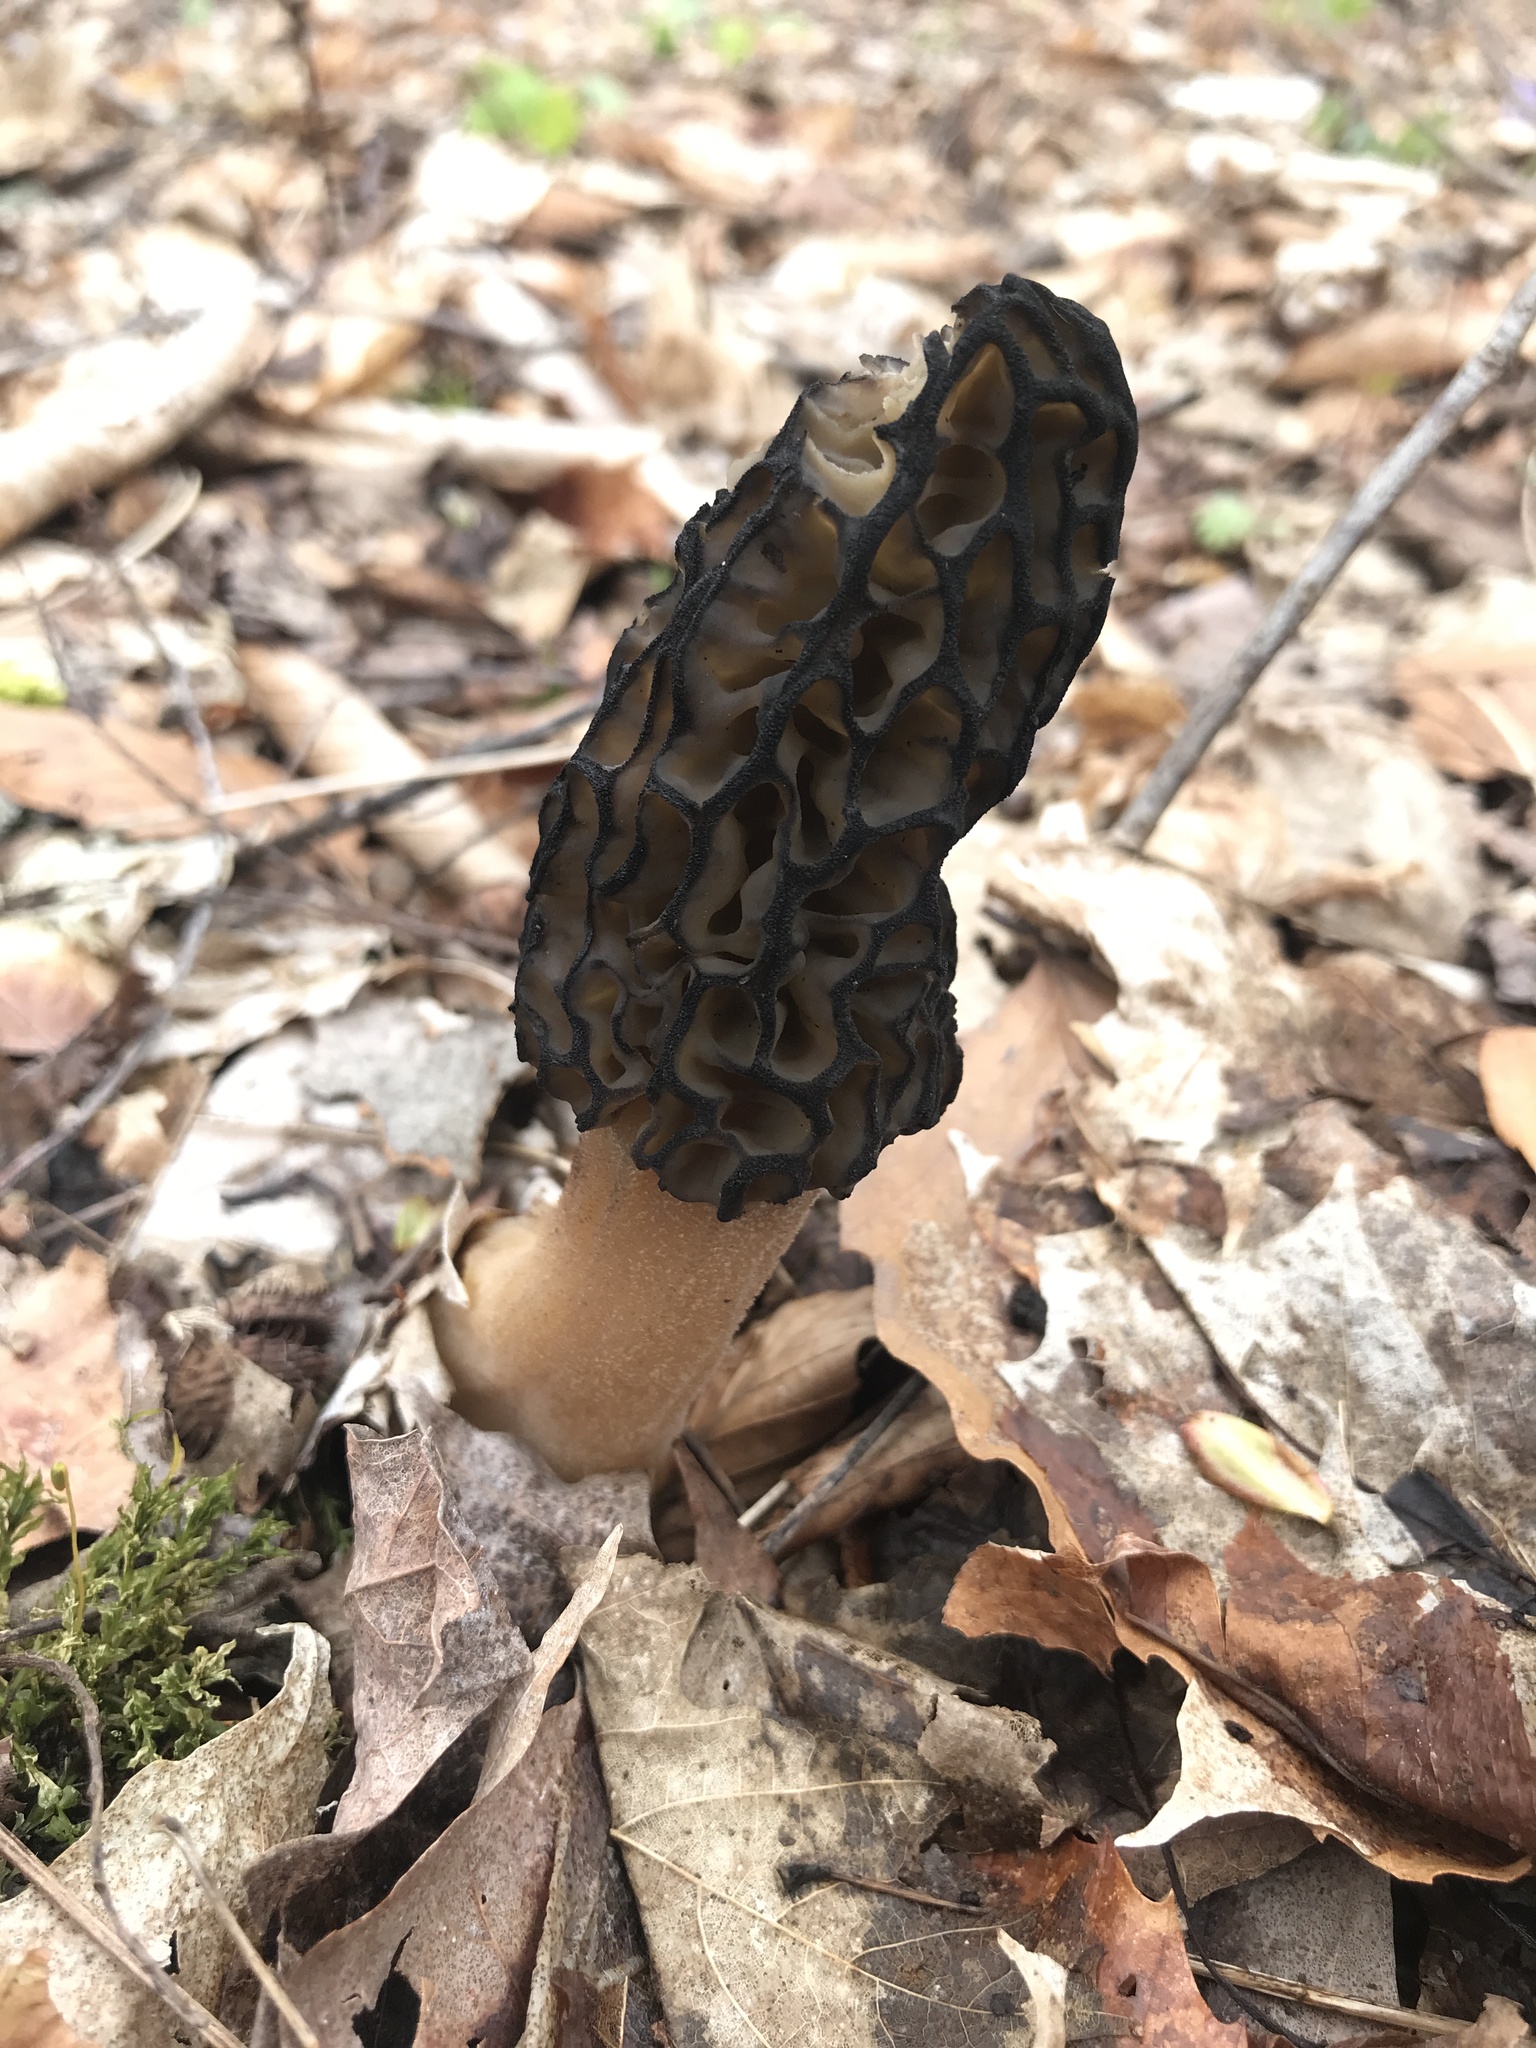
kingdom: Fungi
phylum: Ascomycota
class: Pezizomycetes
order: Pezizales
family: Morchellaceae
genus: Morchella
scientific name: Morchella angusticeps
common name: Black morel
